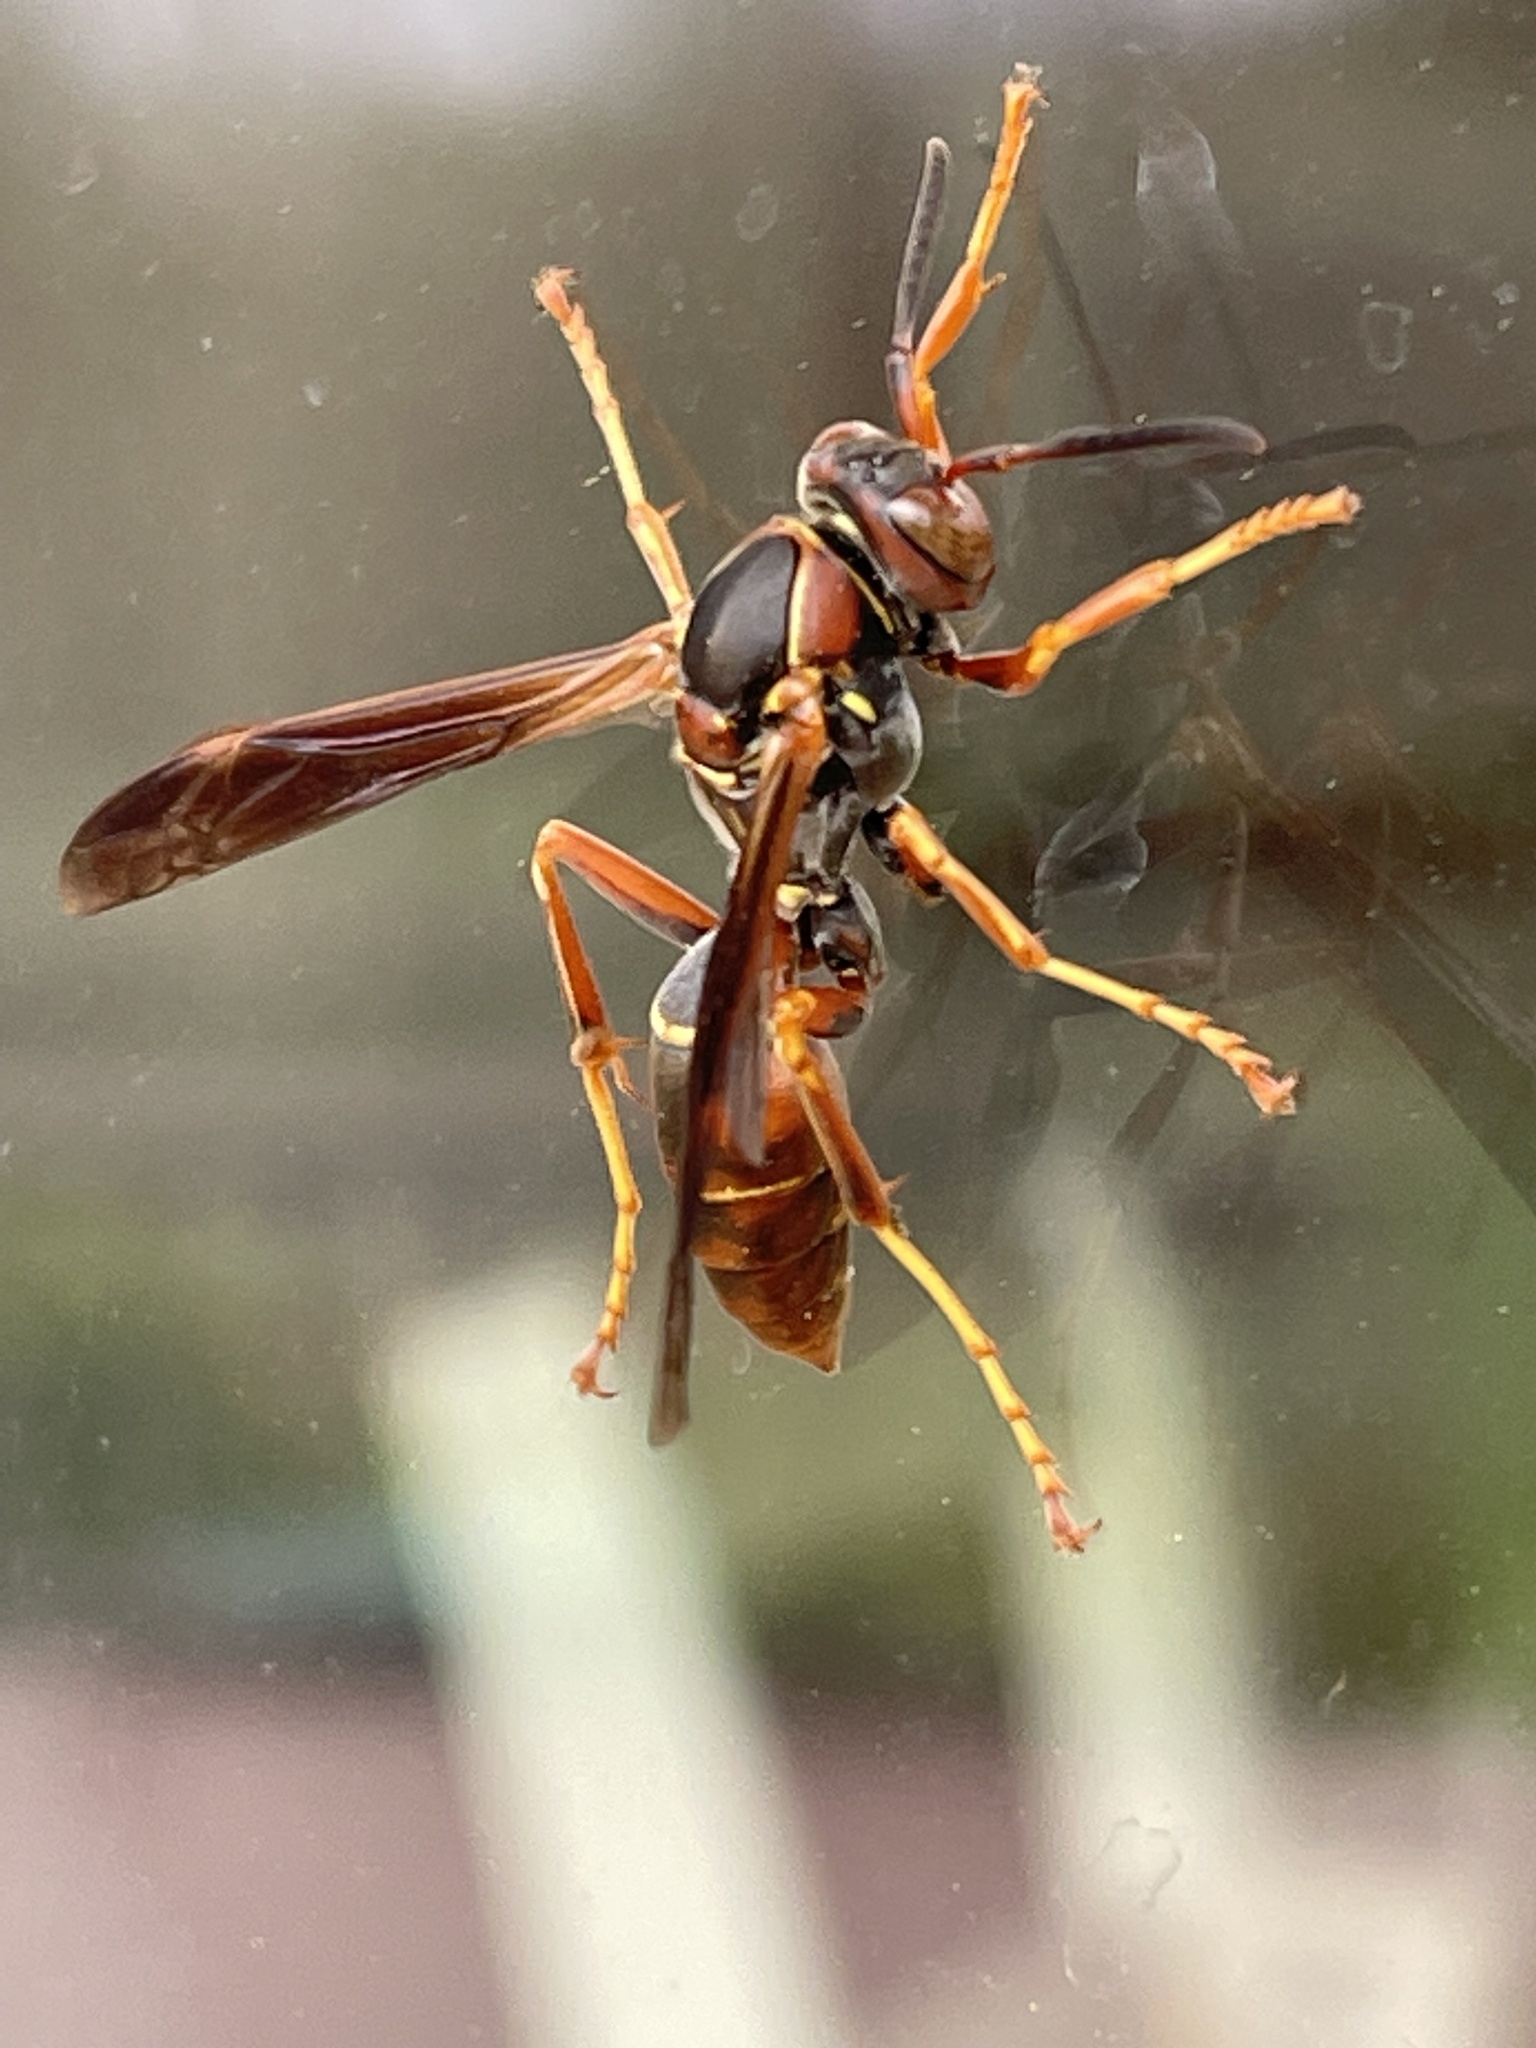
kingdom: Animalia
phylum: Arthropoda
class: Insecta
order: Hymenoptera
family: Eumenidae
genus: Polistes
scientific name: Polistes fuscatus
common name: Dark paper wasp
